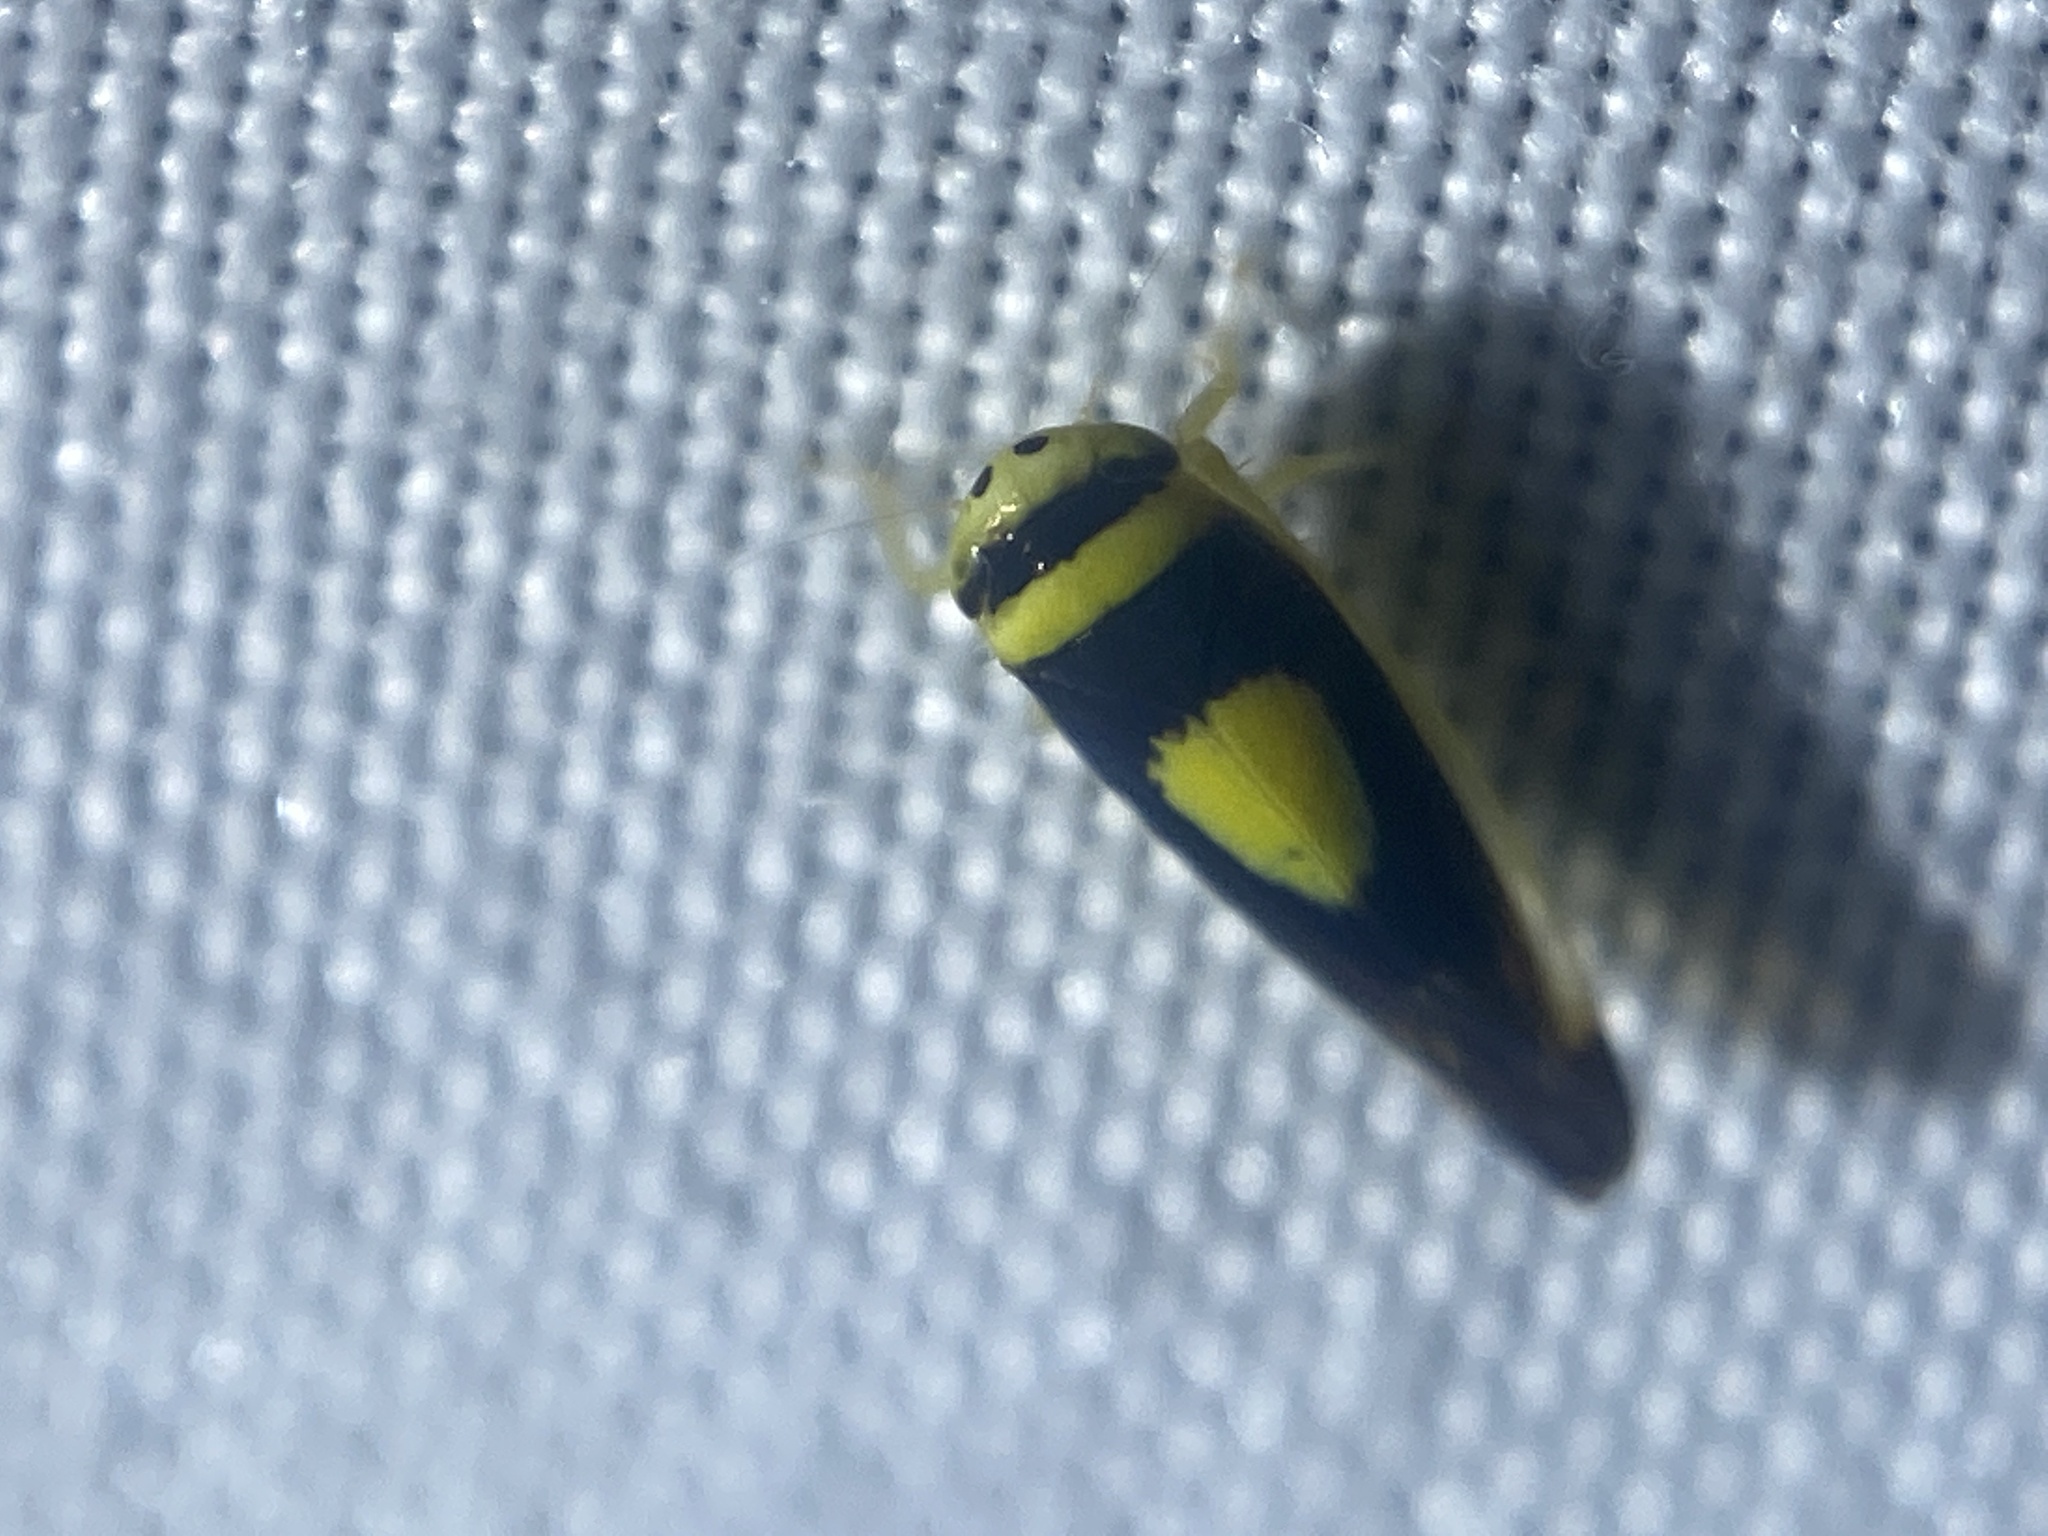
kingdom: Animalia
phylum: Arthropoda
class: Insecta
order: Hemiptera
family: Cicadellidae
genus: Colladonus
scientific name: Colladonus clitellarius
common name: The saddleback leafhopper
